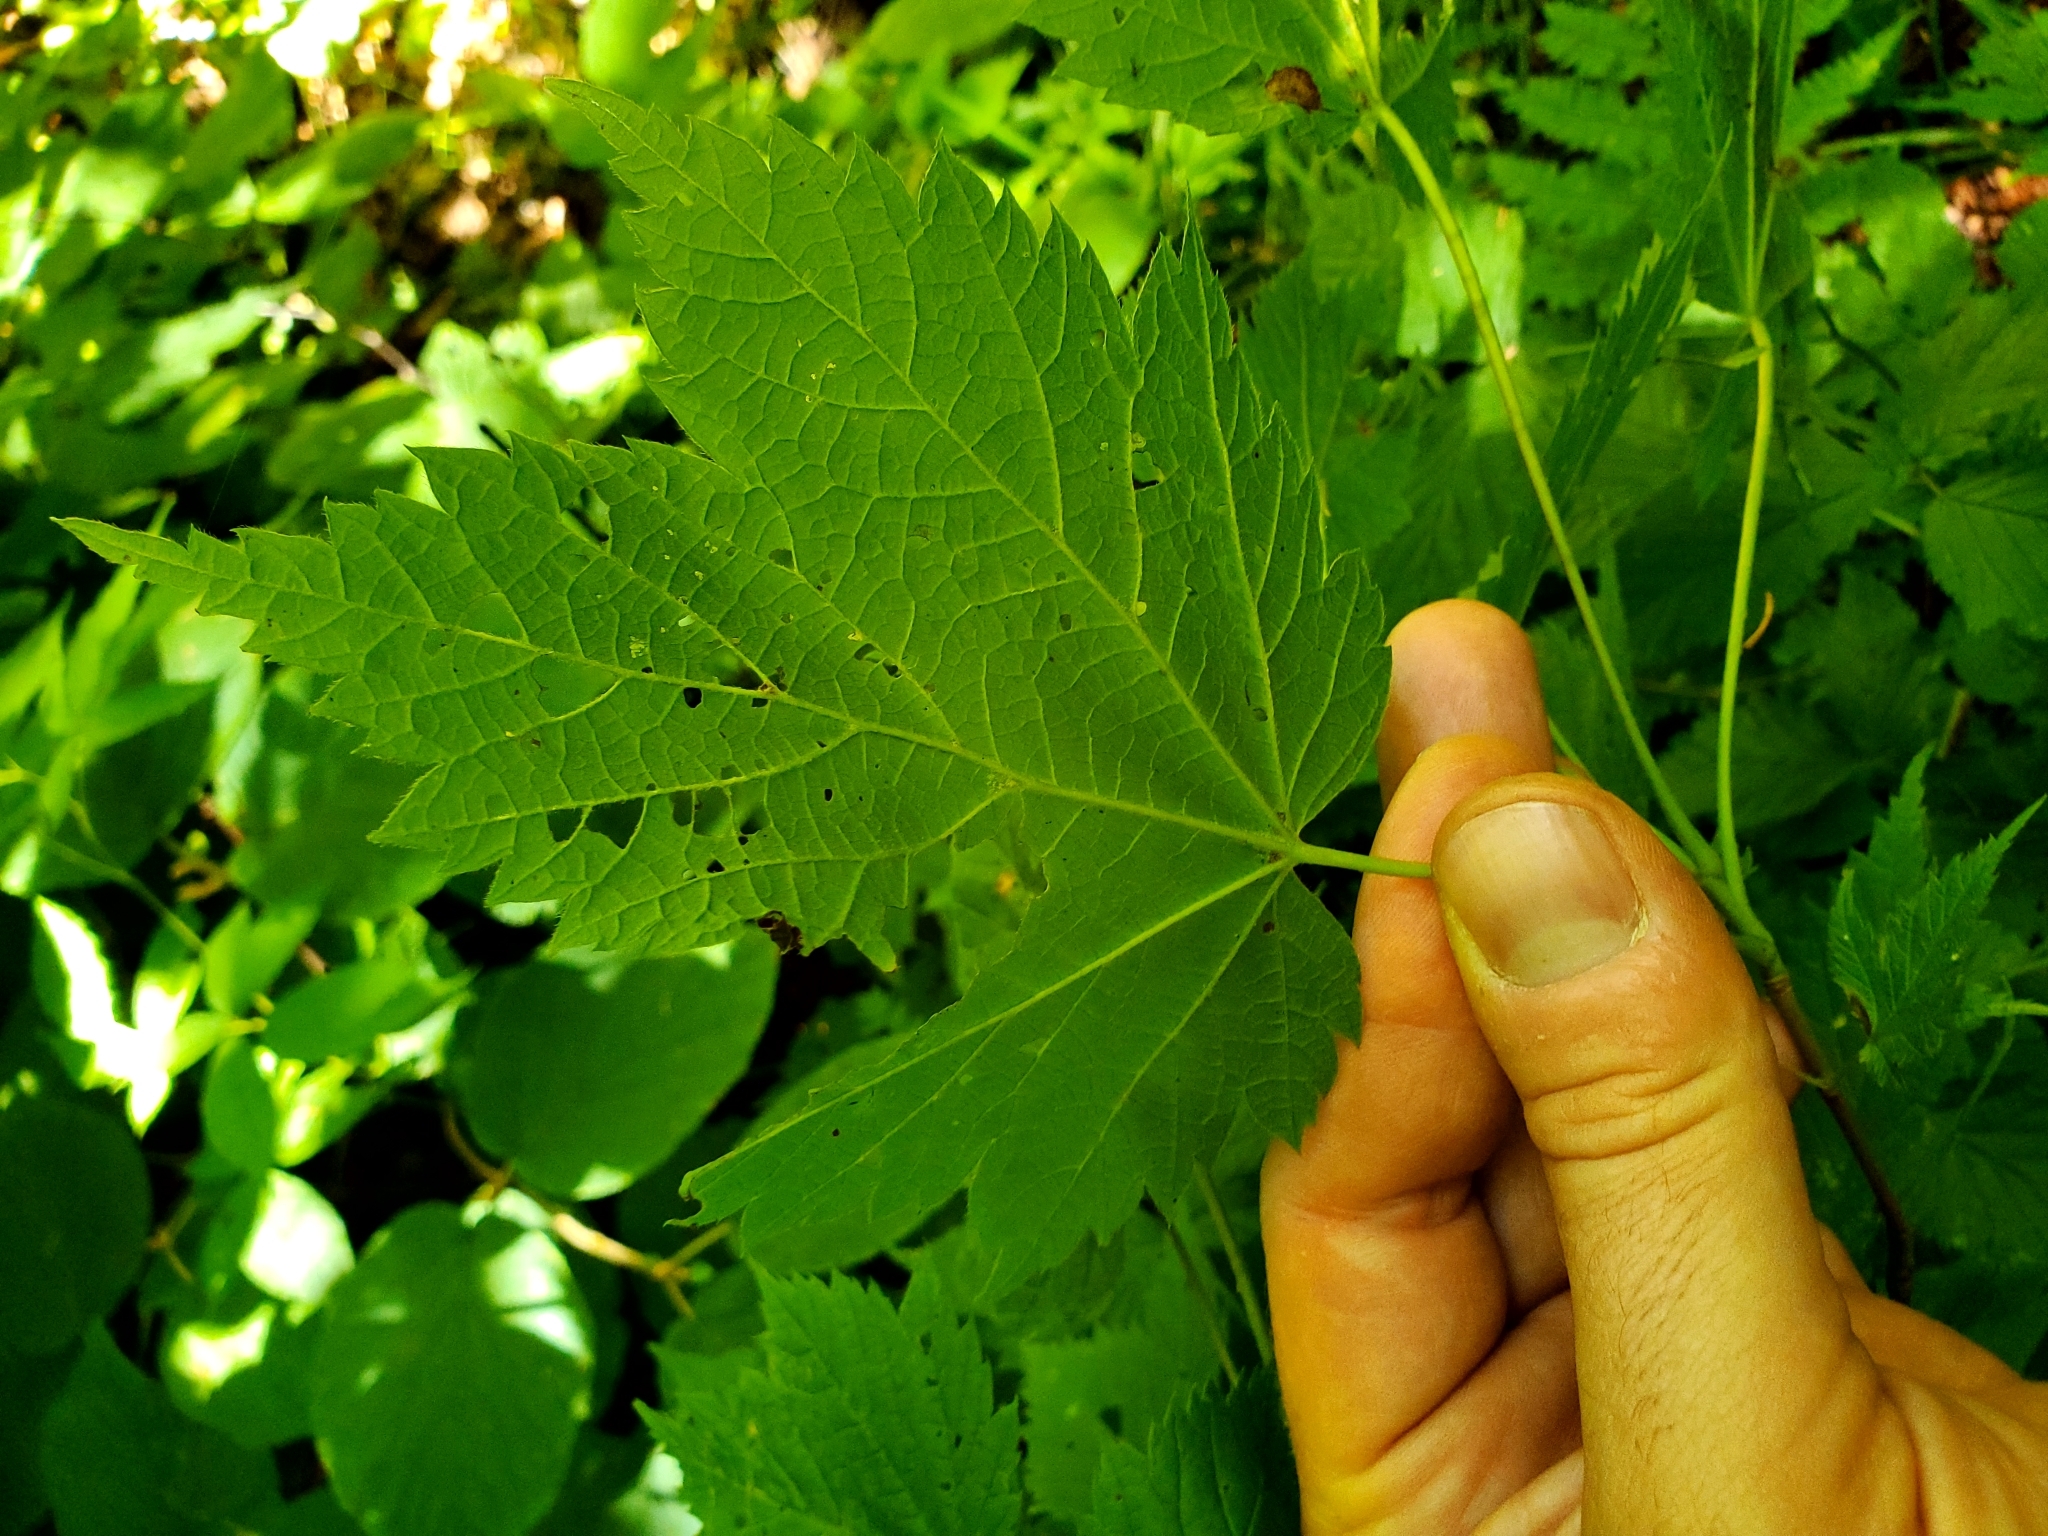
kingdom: Plantae
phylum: Tracheophyta
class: Magnoliopsida
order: Sapindales
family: Sapindaceae
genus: Acer
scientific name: Acer spicatum
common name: Mountain maple
